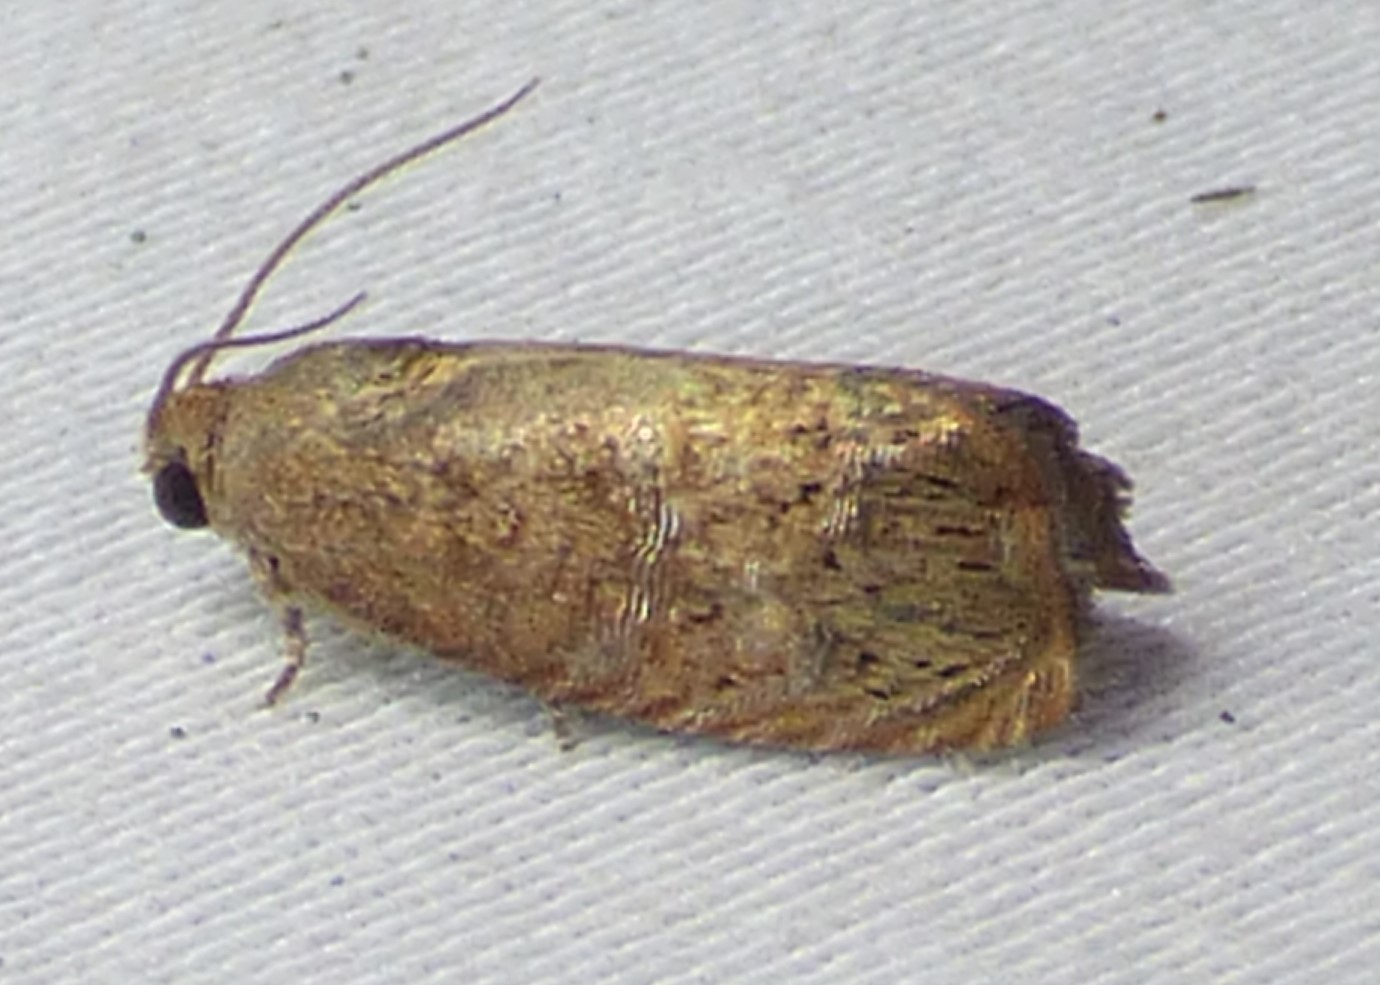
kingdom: Animalia
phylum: Arthropoda
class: Insecta
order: Lepidoptera
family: Tortricidae
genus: Cydia
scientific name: Cydia latiferreana
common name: Filbertworm moth
